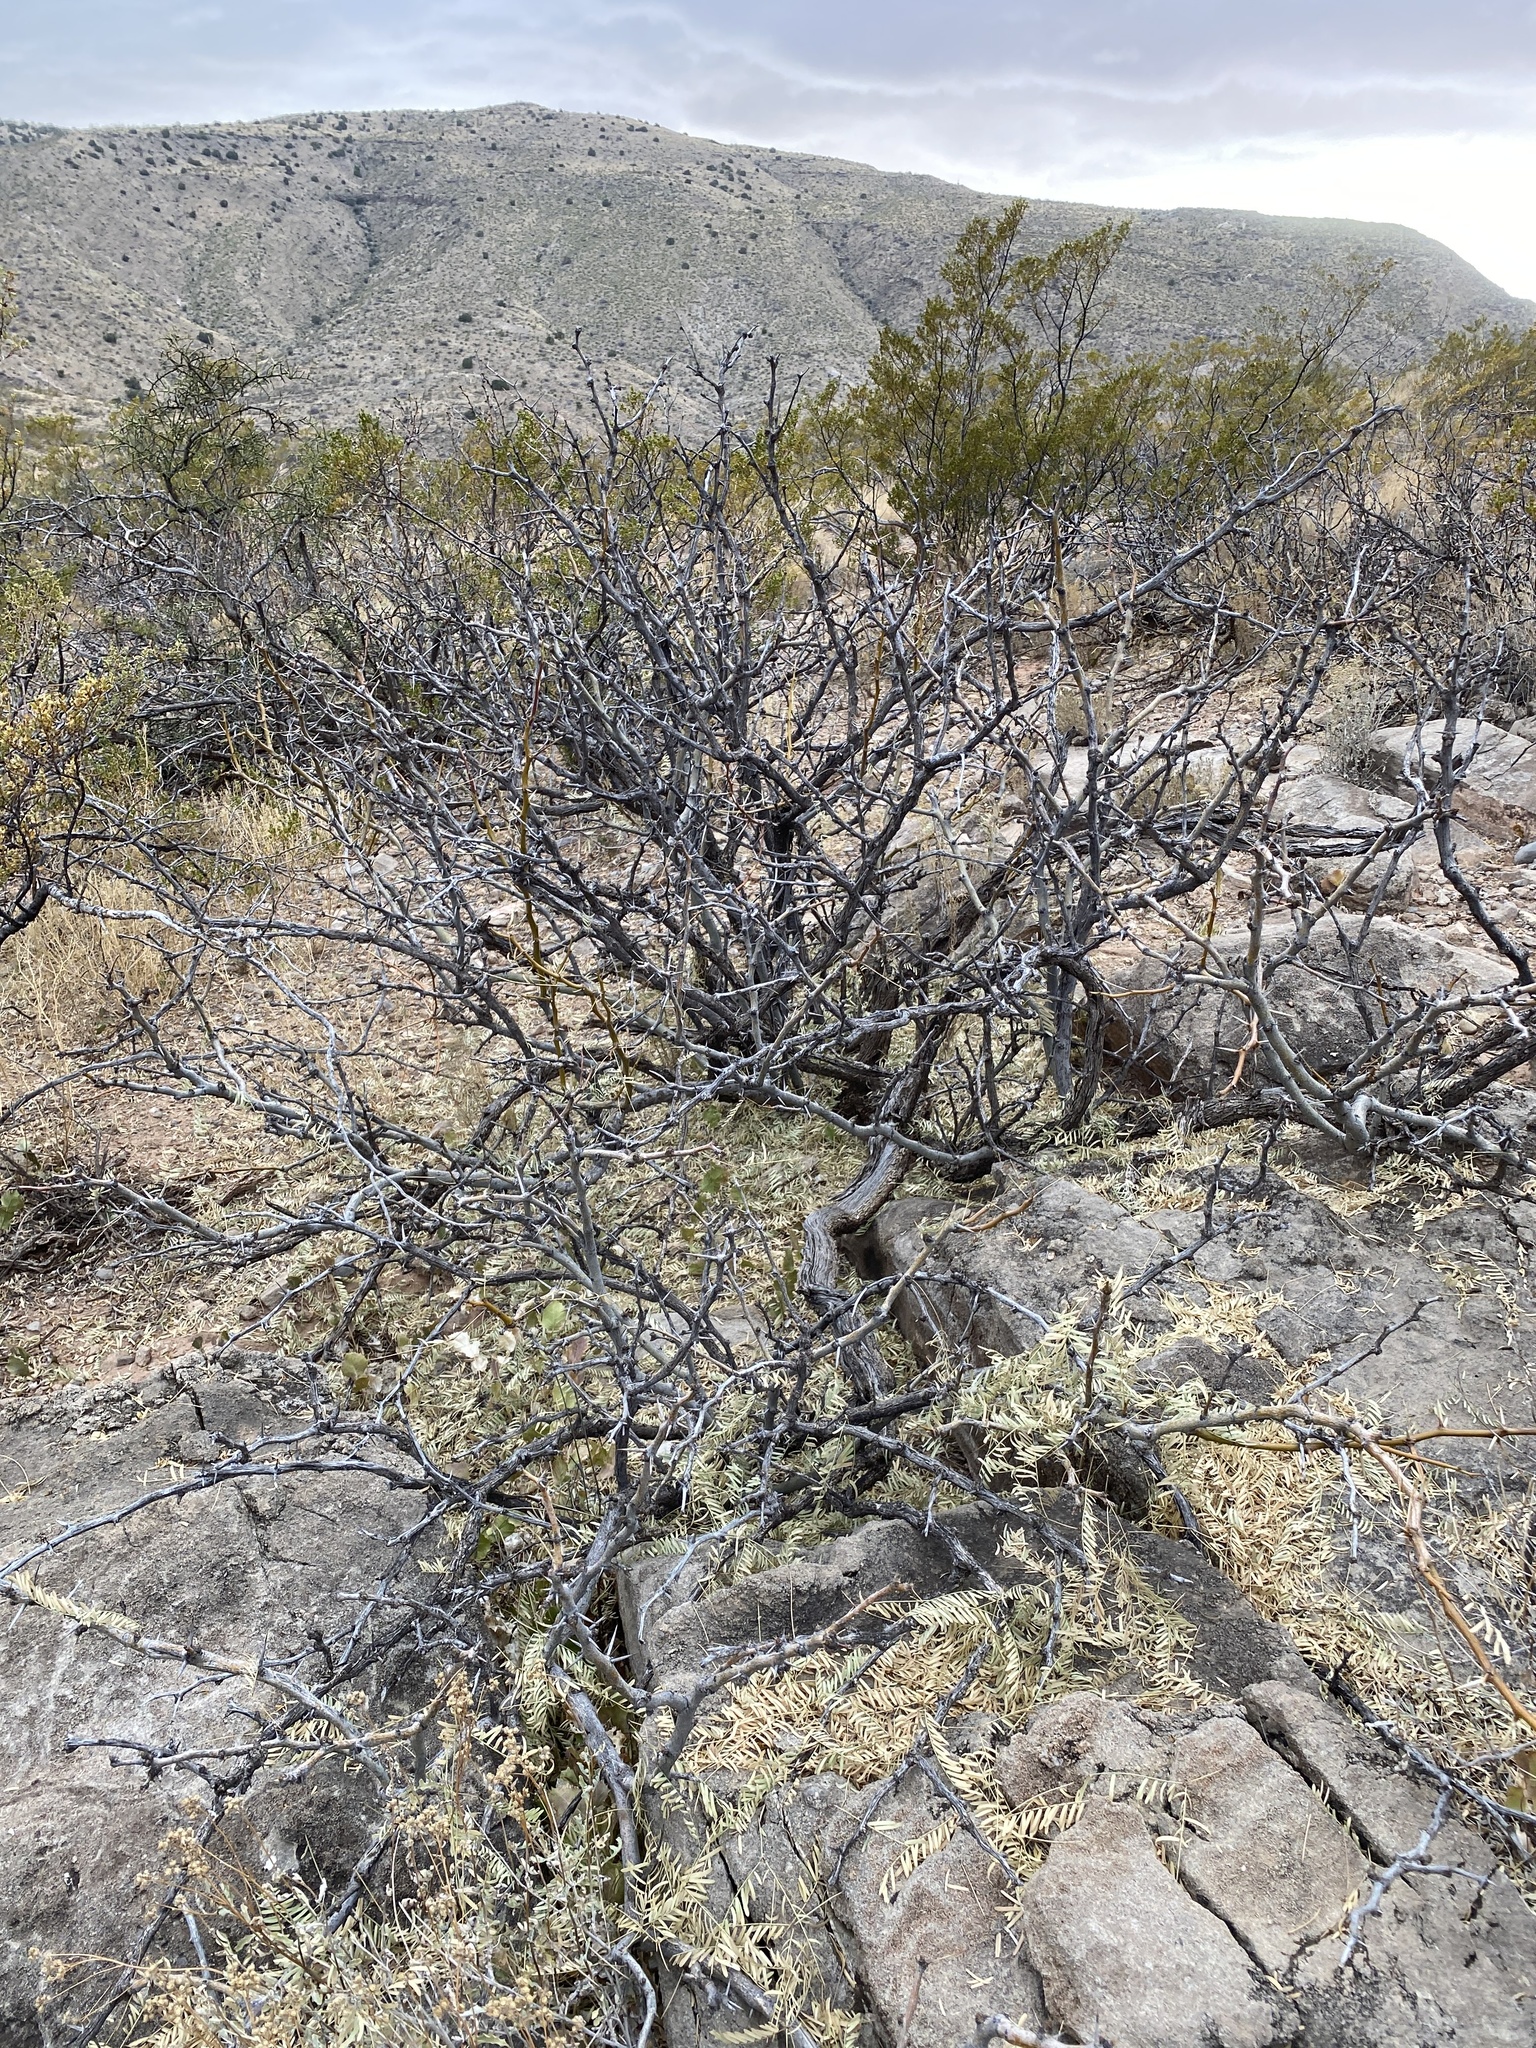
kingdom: Plantae
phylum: Tracheophyta
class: Magnoliopsida
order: Fabales
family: Fabaceae
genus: Prosopis
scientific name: Prosopis glandulosa
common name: Honey mesquite
